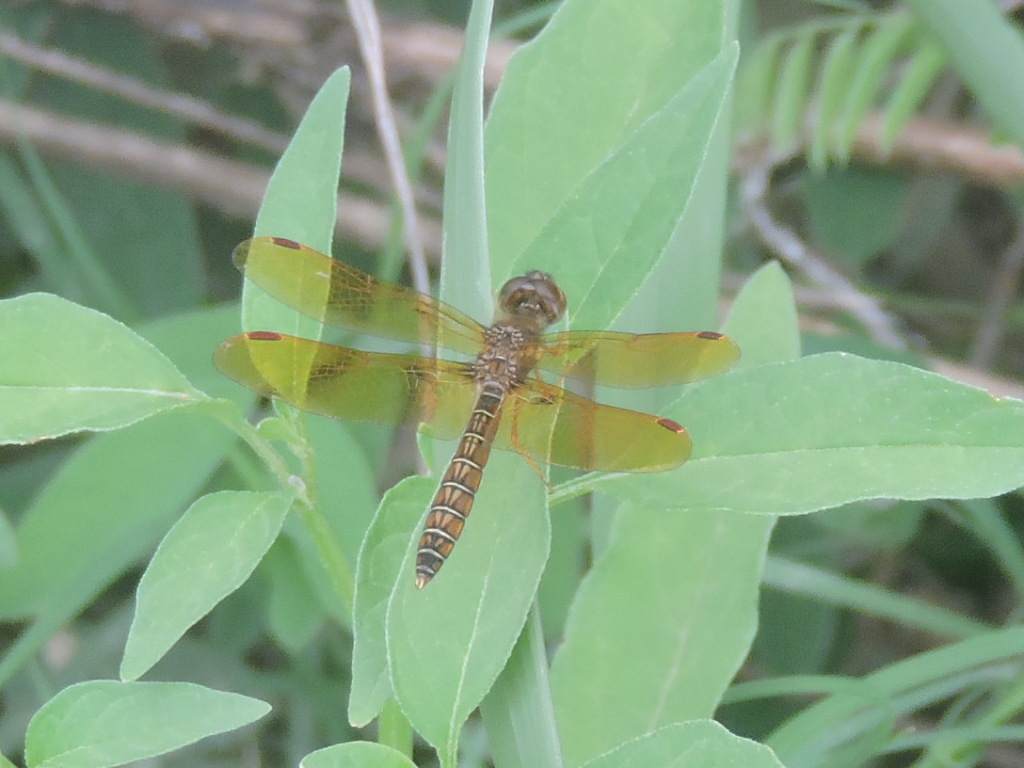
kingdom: Animalia
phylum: Arthropoda
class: Insecta
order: Odonata
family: Libellulidae
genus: Perithemis
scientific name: Perithemis tenera
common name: Eastern amberwing
